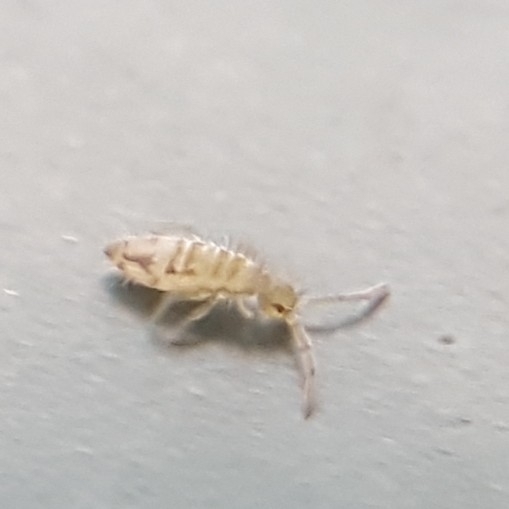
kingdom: Animalia
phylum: Arthropoda
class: Collembola
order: Entomobryomorpha
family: Entomobryidae
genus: Entomobrya
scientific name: Entomobrya nivalis
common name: Cosmopolitan springtail
